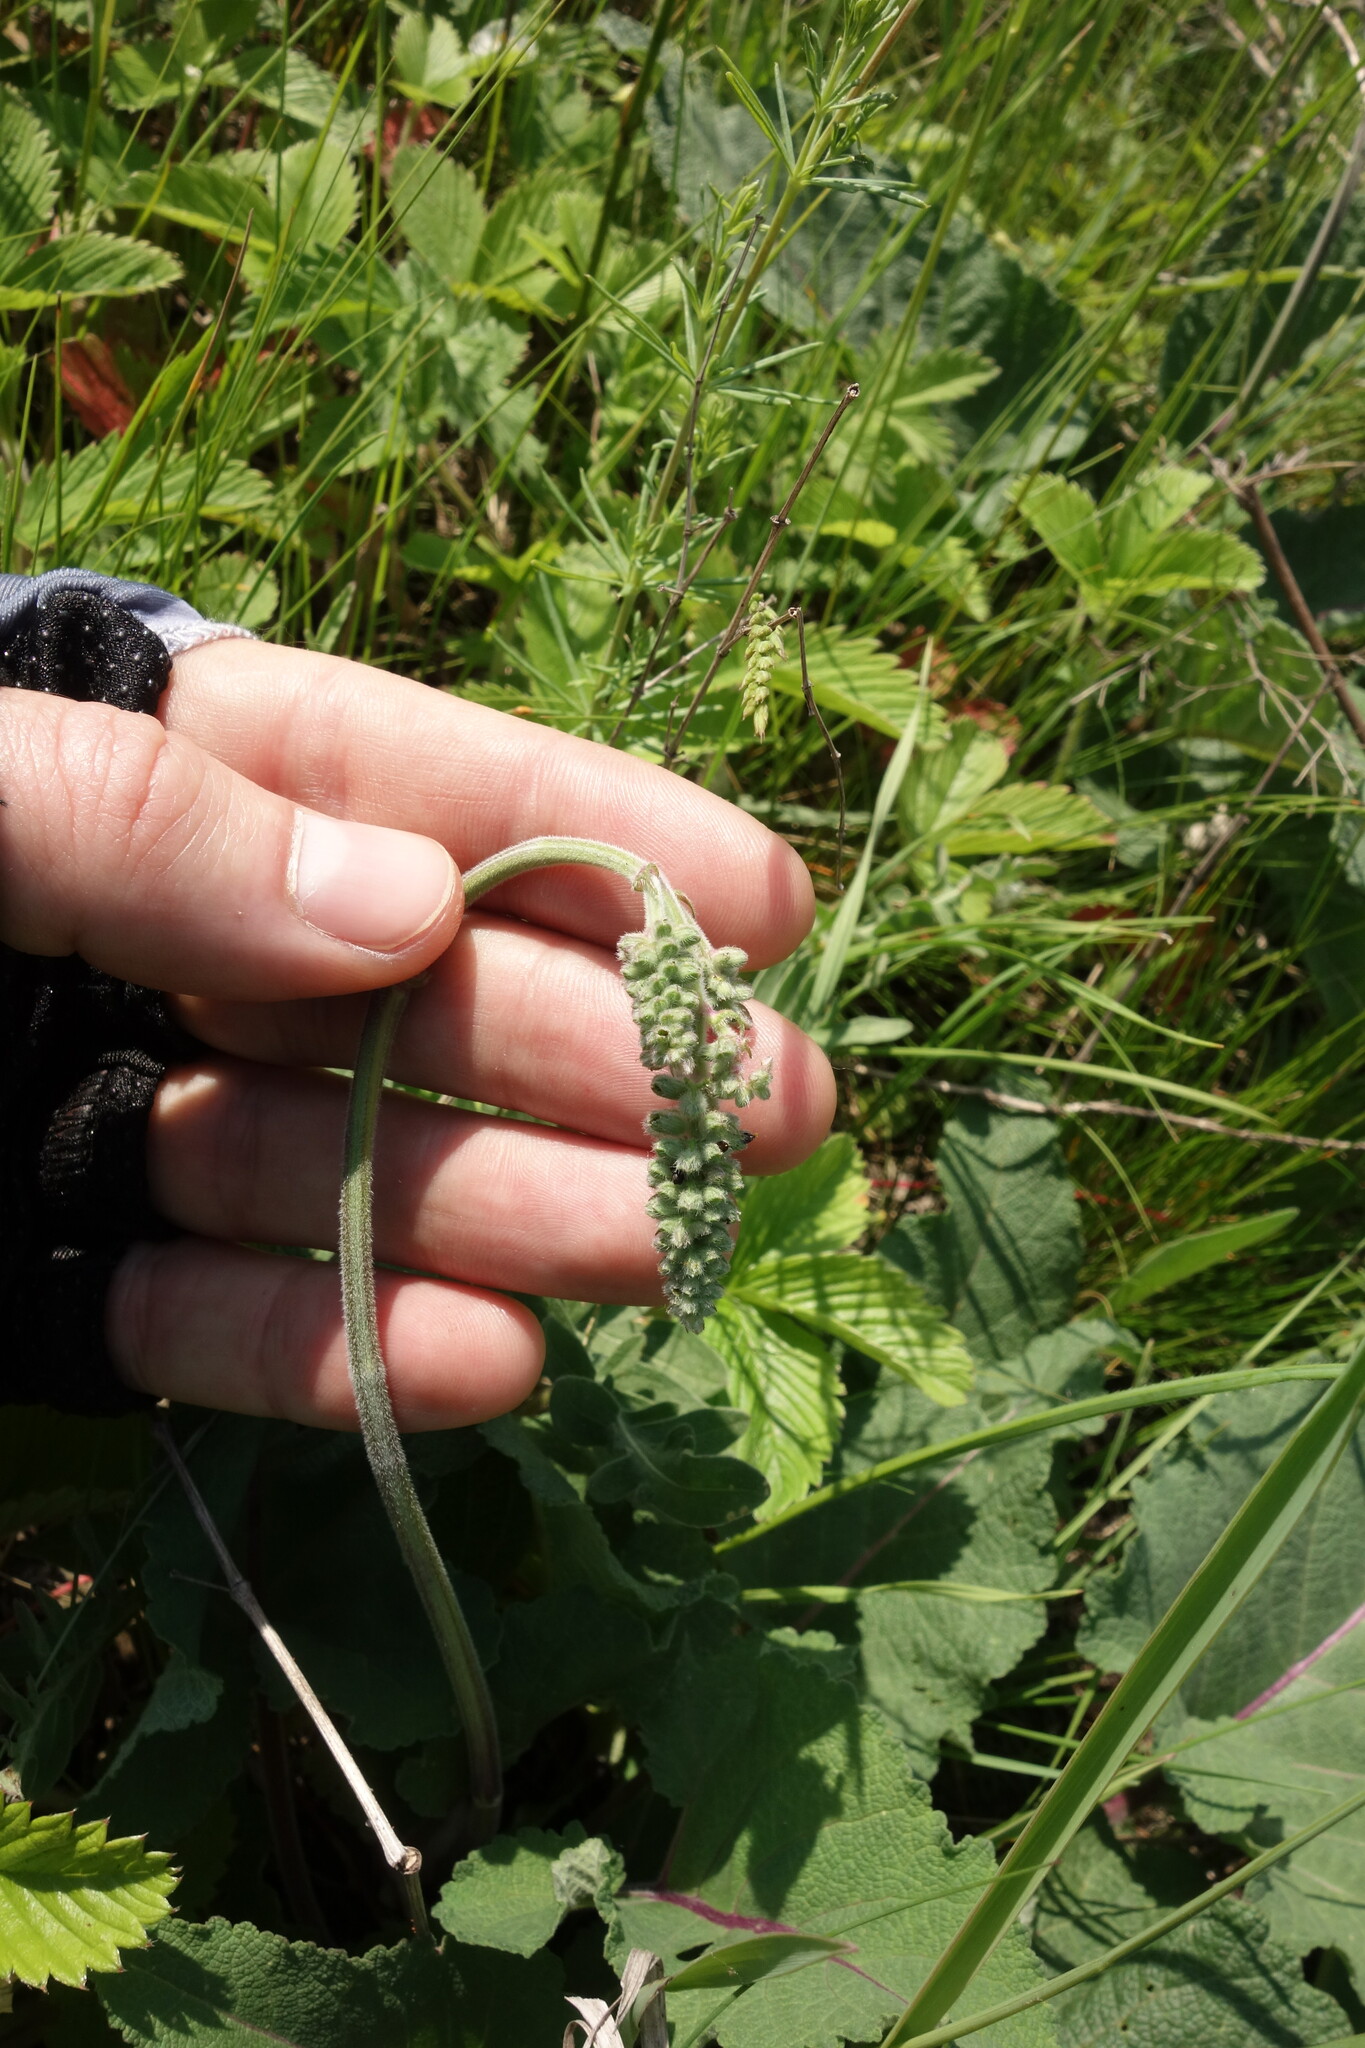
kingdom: Plantae
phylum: Tracheophyta
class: Magnoliopsida
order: Lamiales
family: Lamiaceae
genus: Salvia
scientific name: Salvia nutans
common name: Nodding sage
